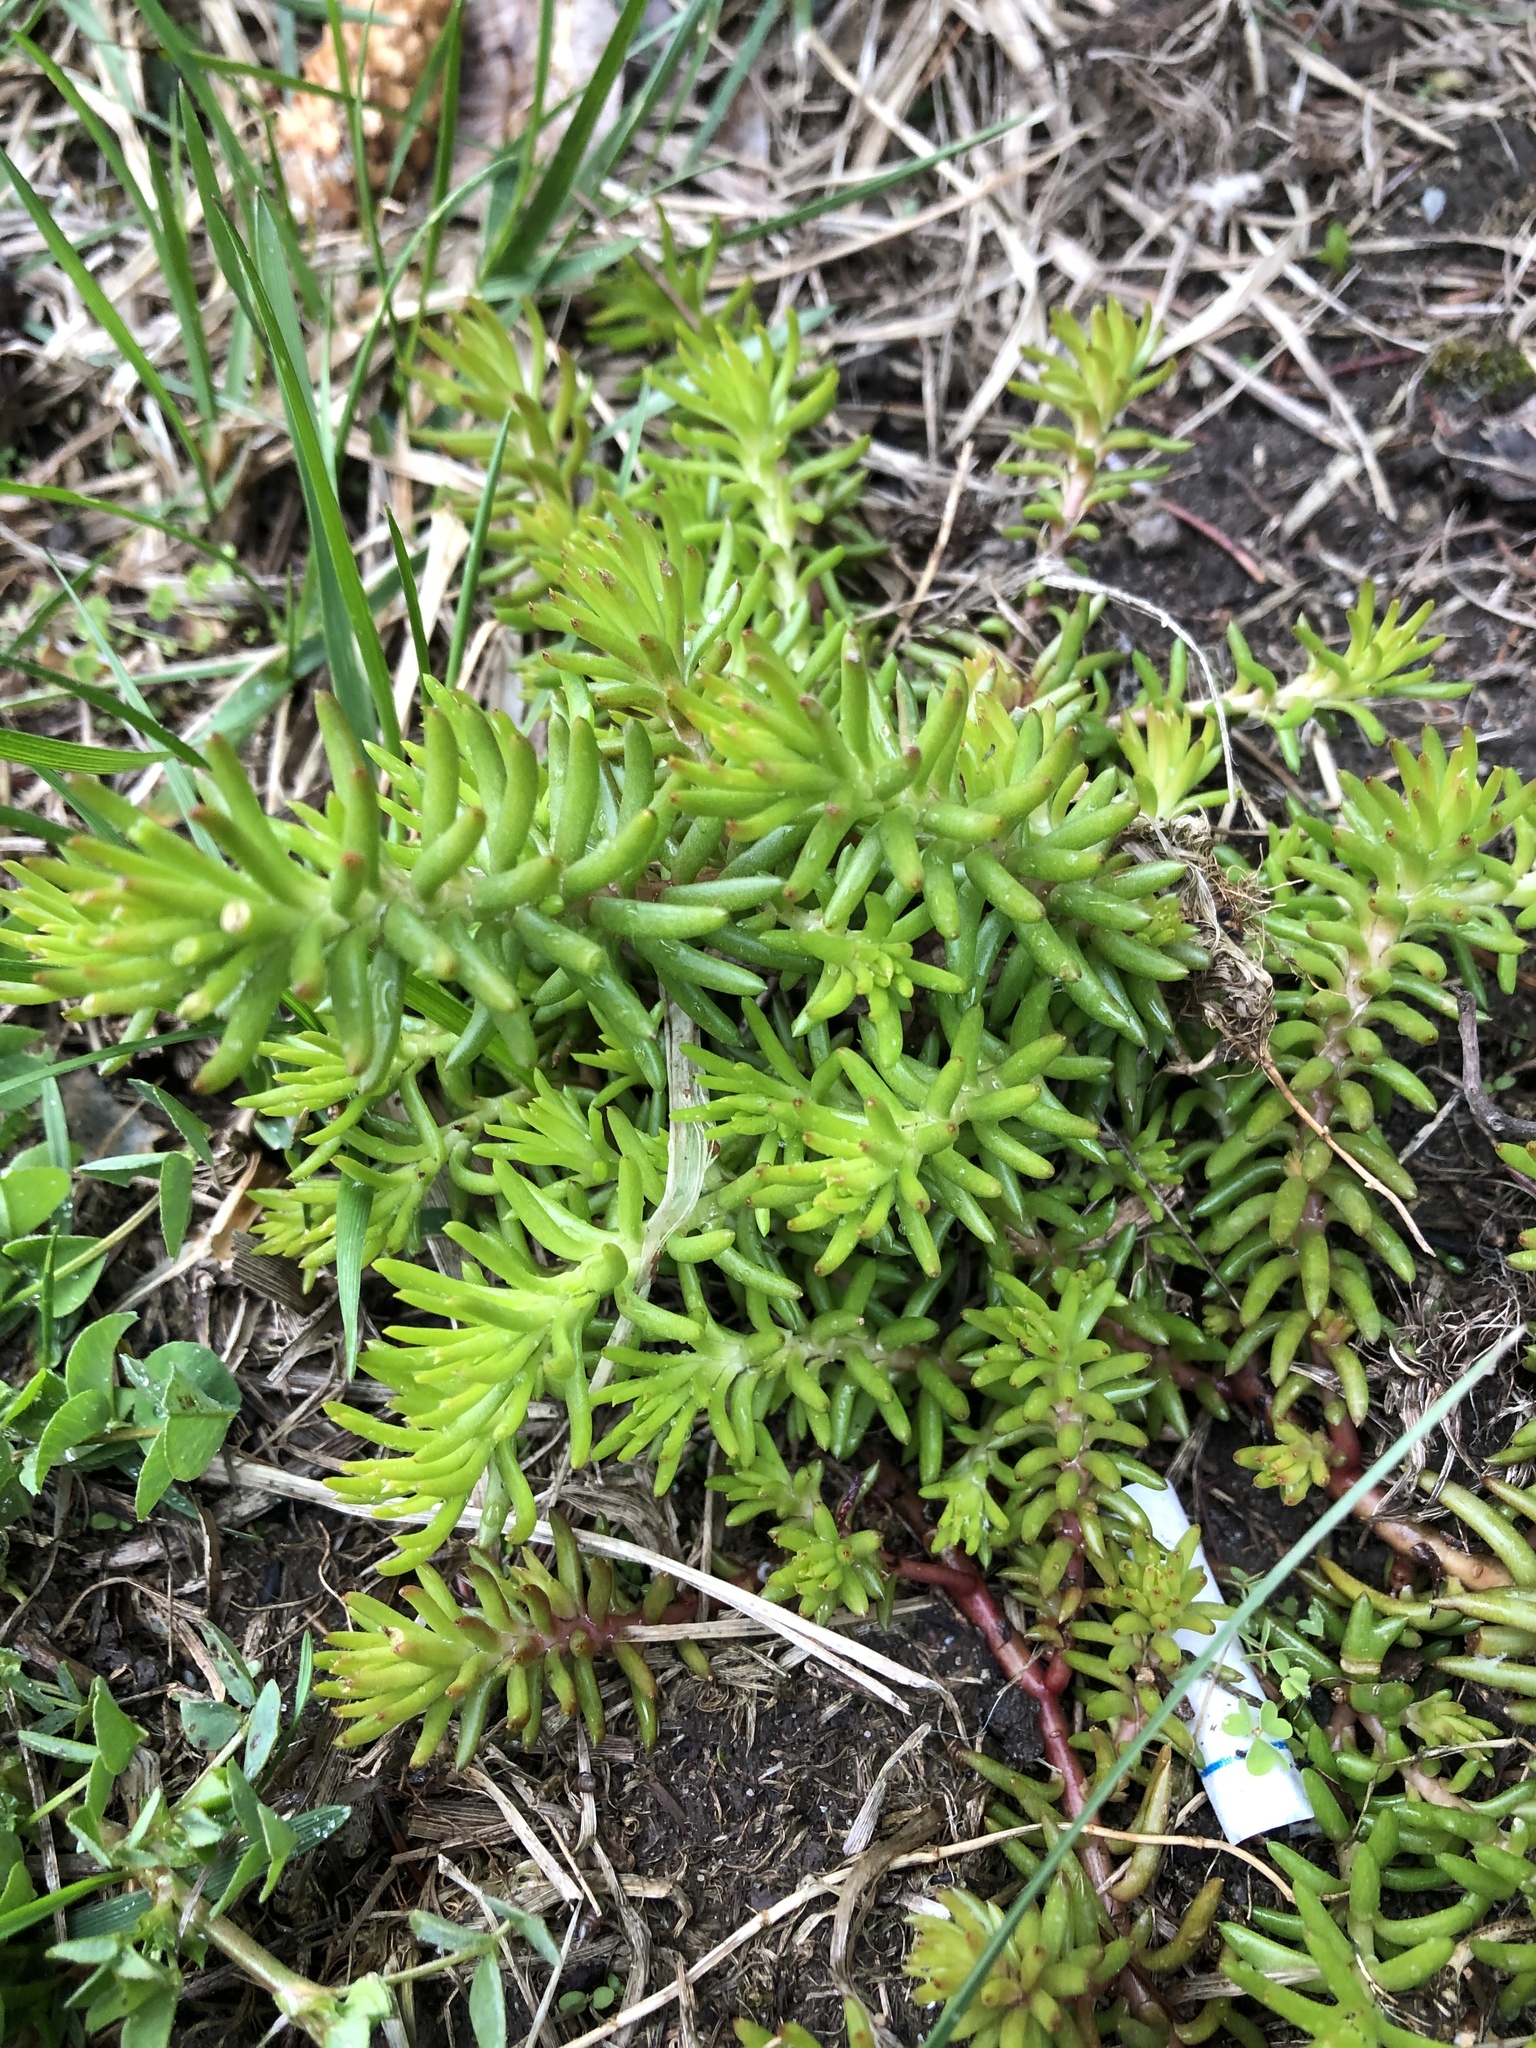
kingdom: Plantae
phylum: Tracheophyta
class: Magnoliopsida
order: Saxifragales
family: Crassulaceae
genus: Petrosedum
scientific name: Petrosedum rupestre
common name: Jenny's stonecrop
